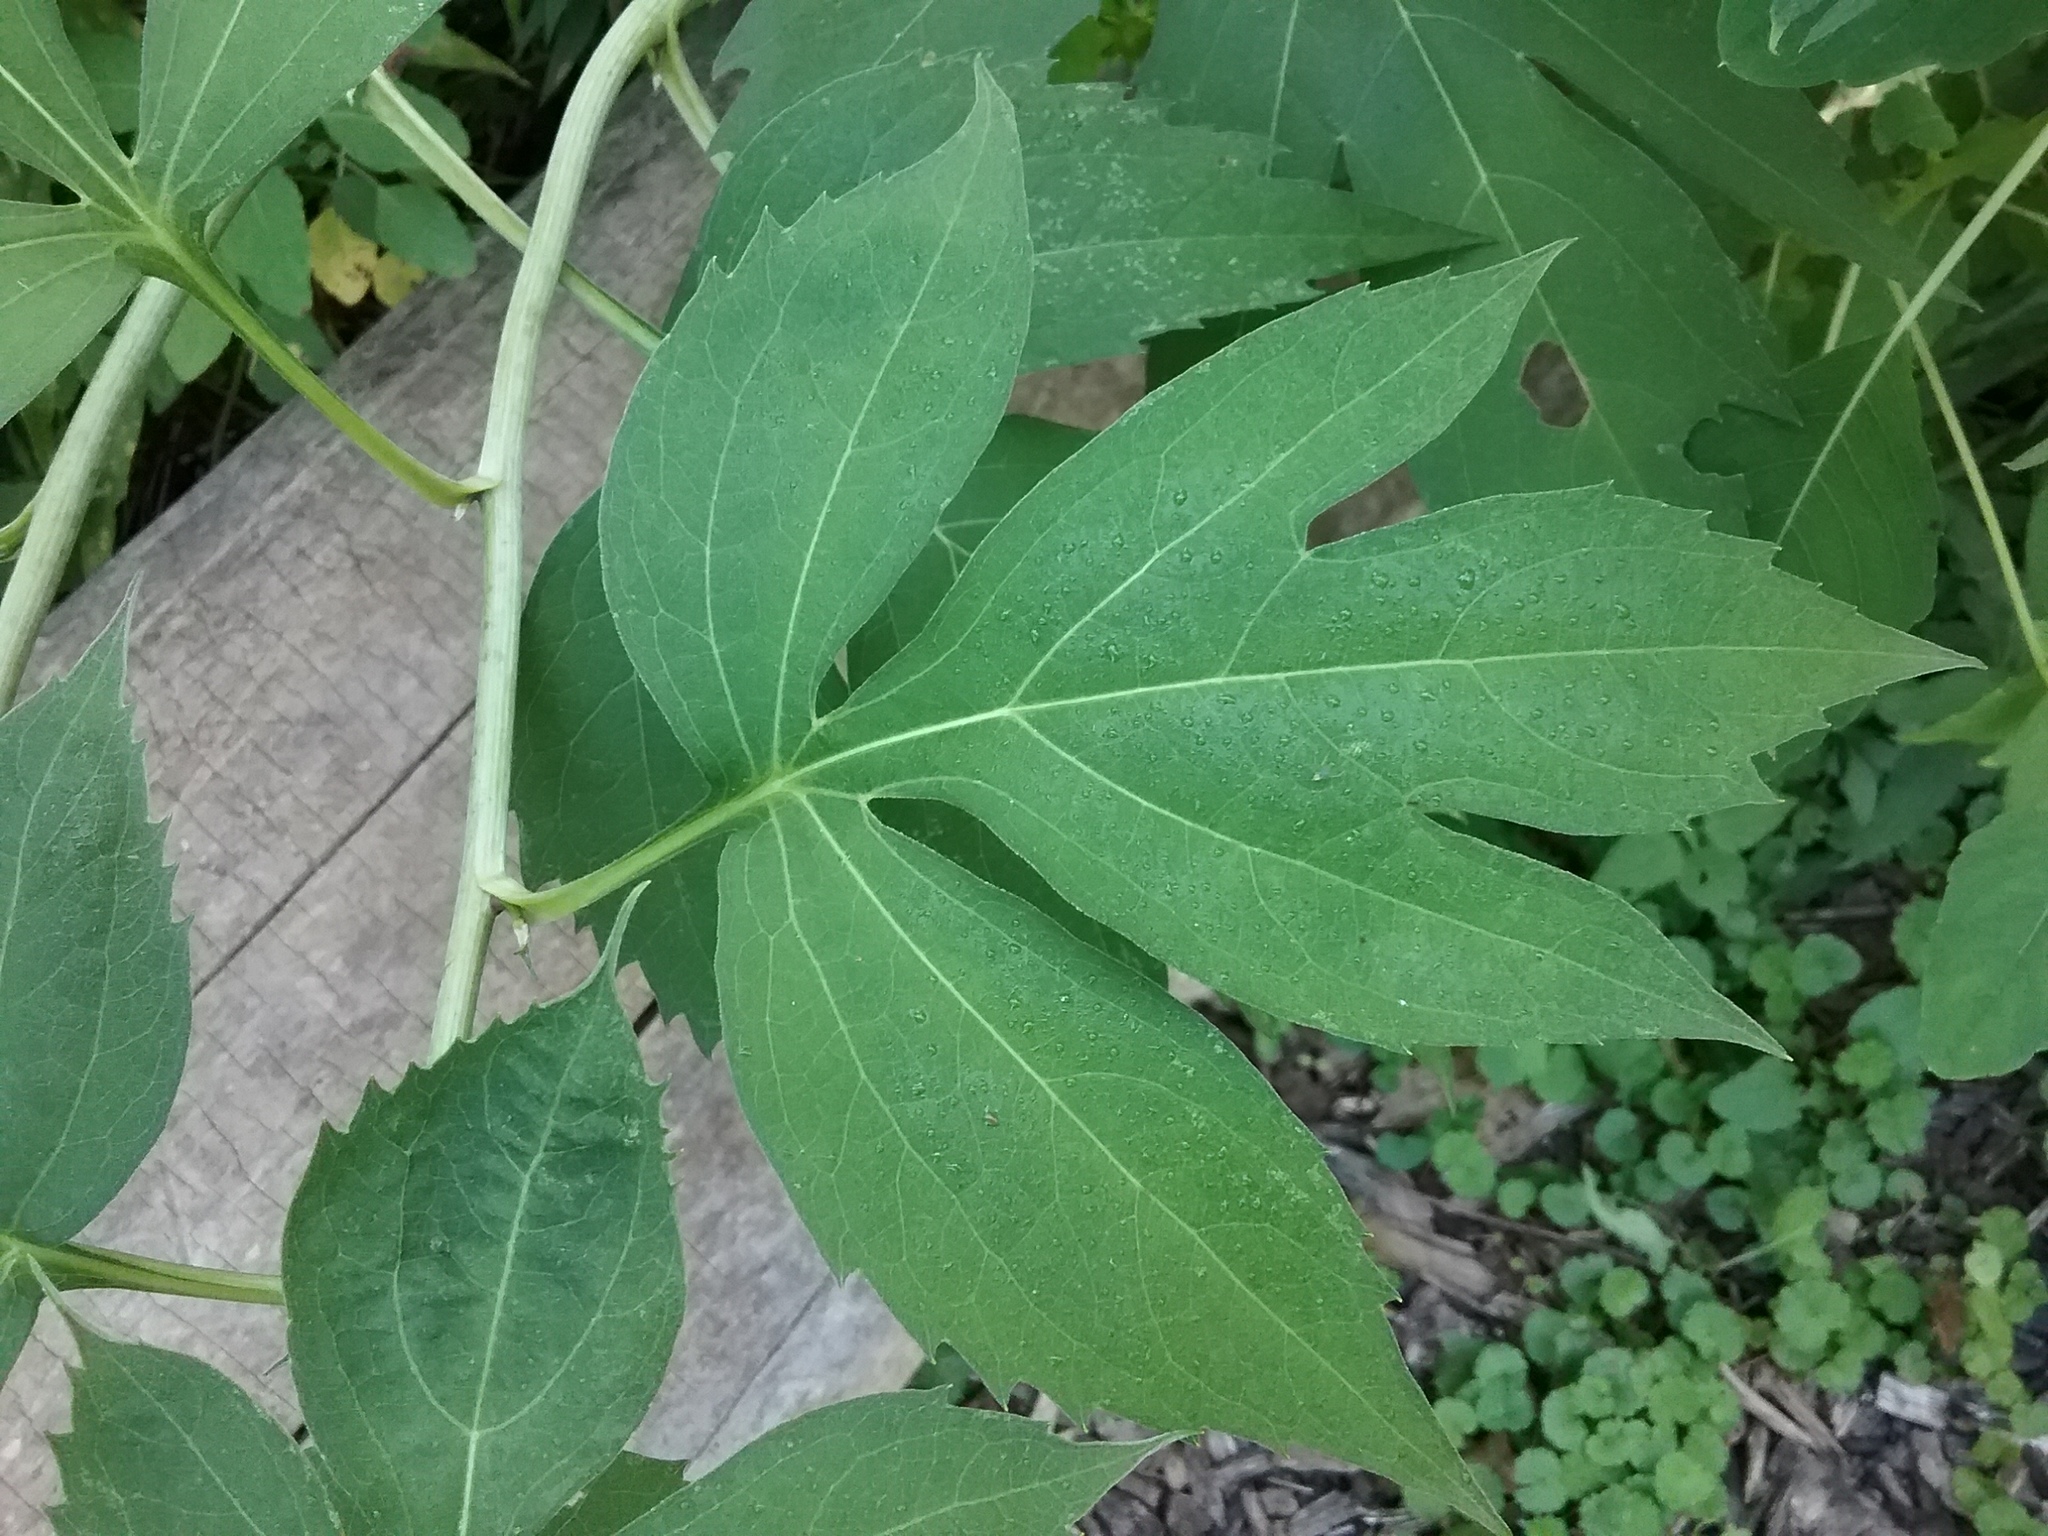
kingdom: Plantae
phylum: Tracheophyta
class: Magnoliopsida
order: Asterales
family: Asteraceae
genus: Rudbeckia
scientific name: Rudbeckia laciniata
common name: Coneflower
